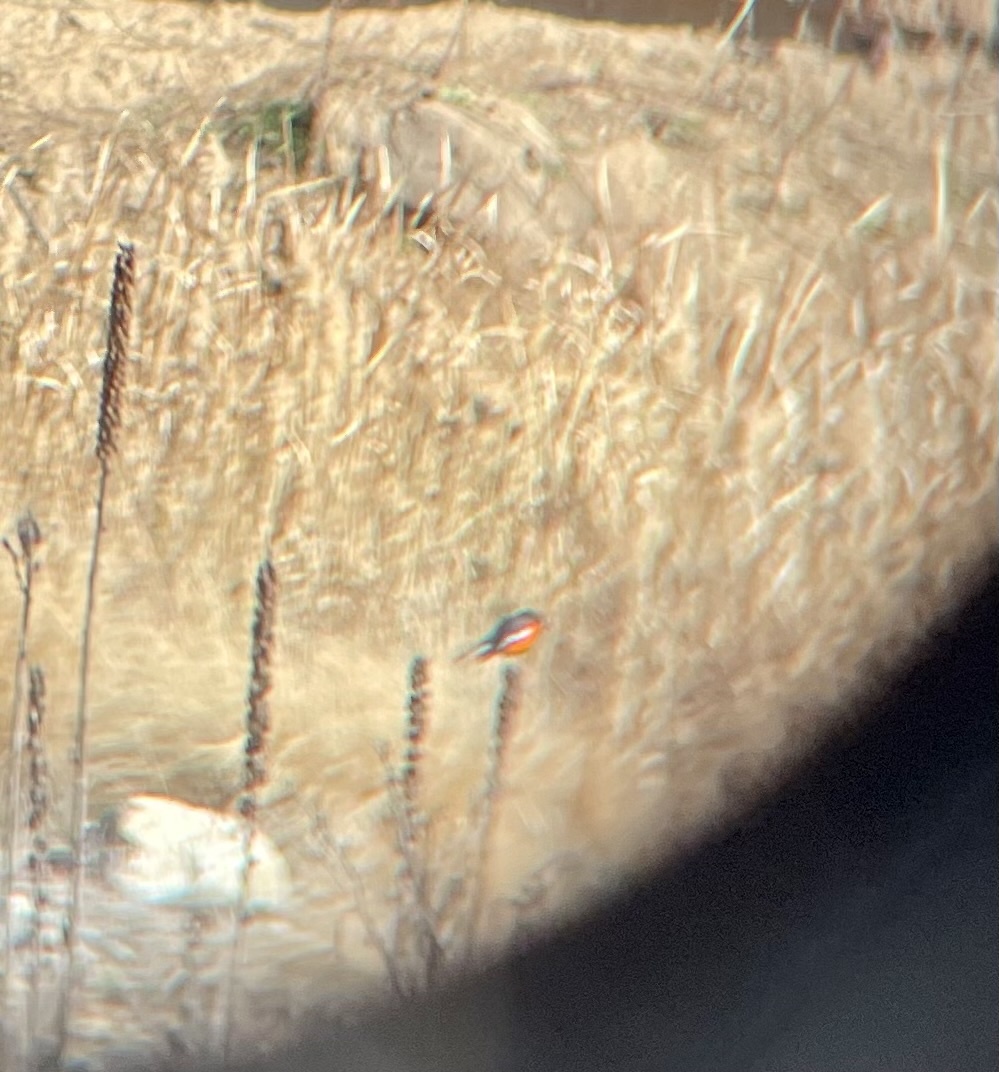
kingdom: Animalia
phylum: Chordata
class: Aves
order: Passeriformes
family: Petroicidae
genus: Petroica
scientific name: Petroica phoenicea
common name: Flame robin
